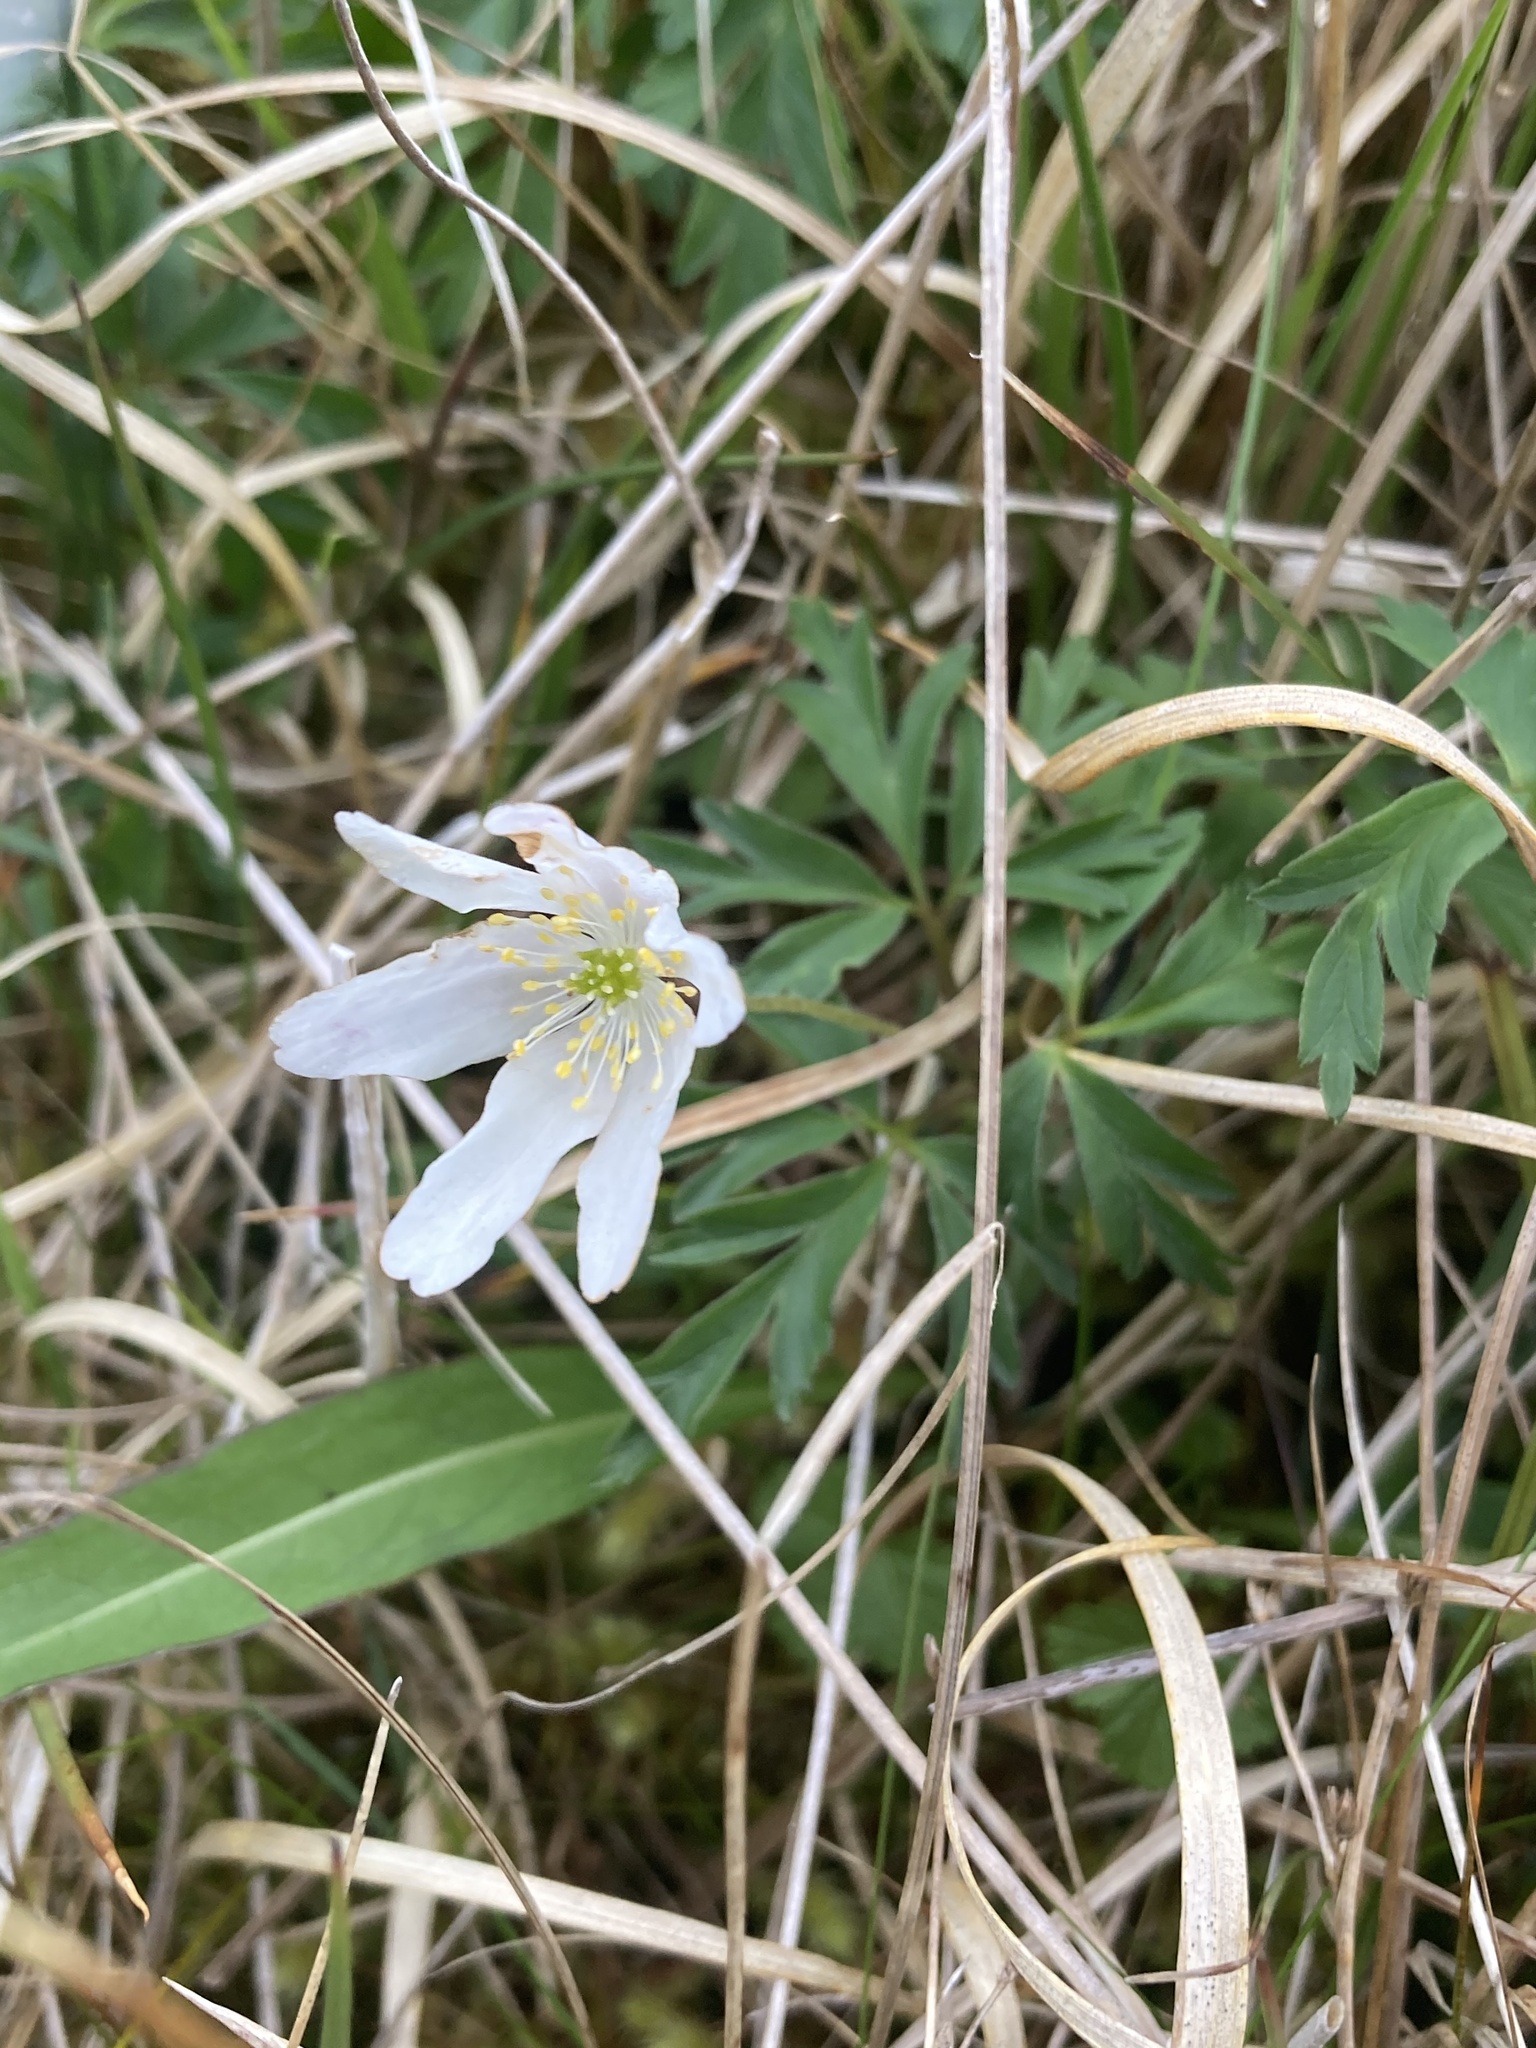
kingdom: Plantae
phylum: Tracheophyta
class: Magnoliopsida
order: Ranunculales
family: Ranunculaceae
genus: Anemone
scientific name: Anemone nemorosa
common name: Wood anemone
